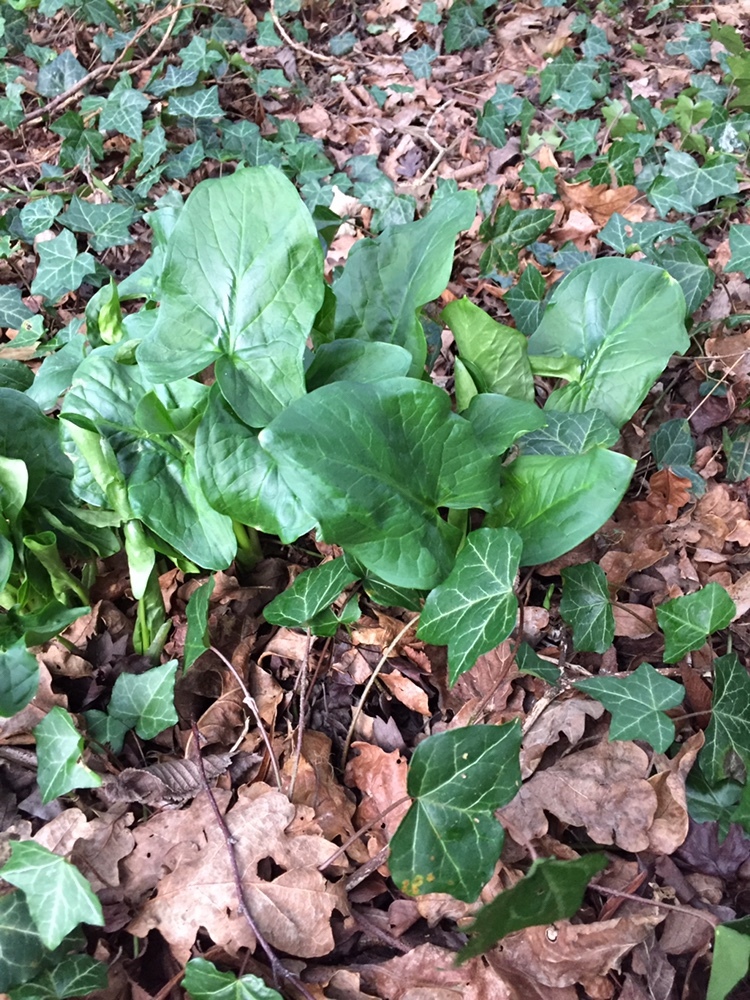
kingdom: Plantae
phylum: Tracheophyta
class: Liliopsida
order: Alismatales
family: Araceae
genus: Arum
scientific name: Arum maculatum
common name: Lords-and-ladies
